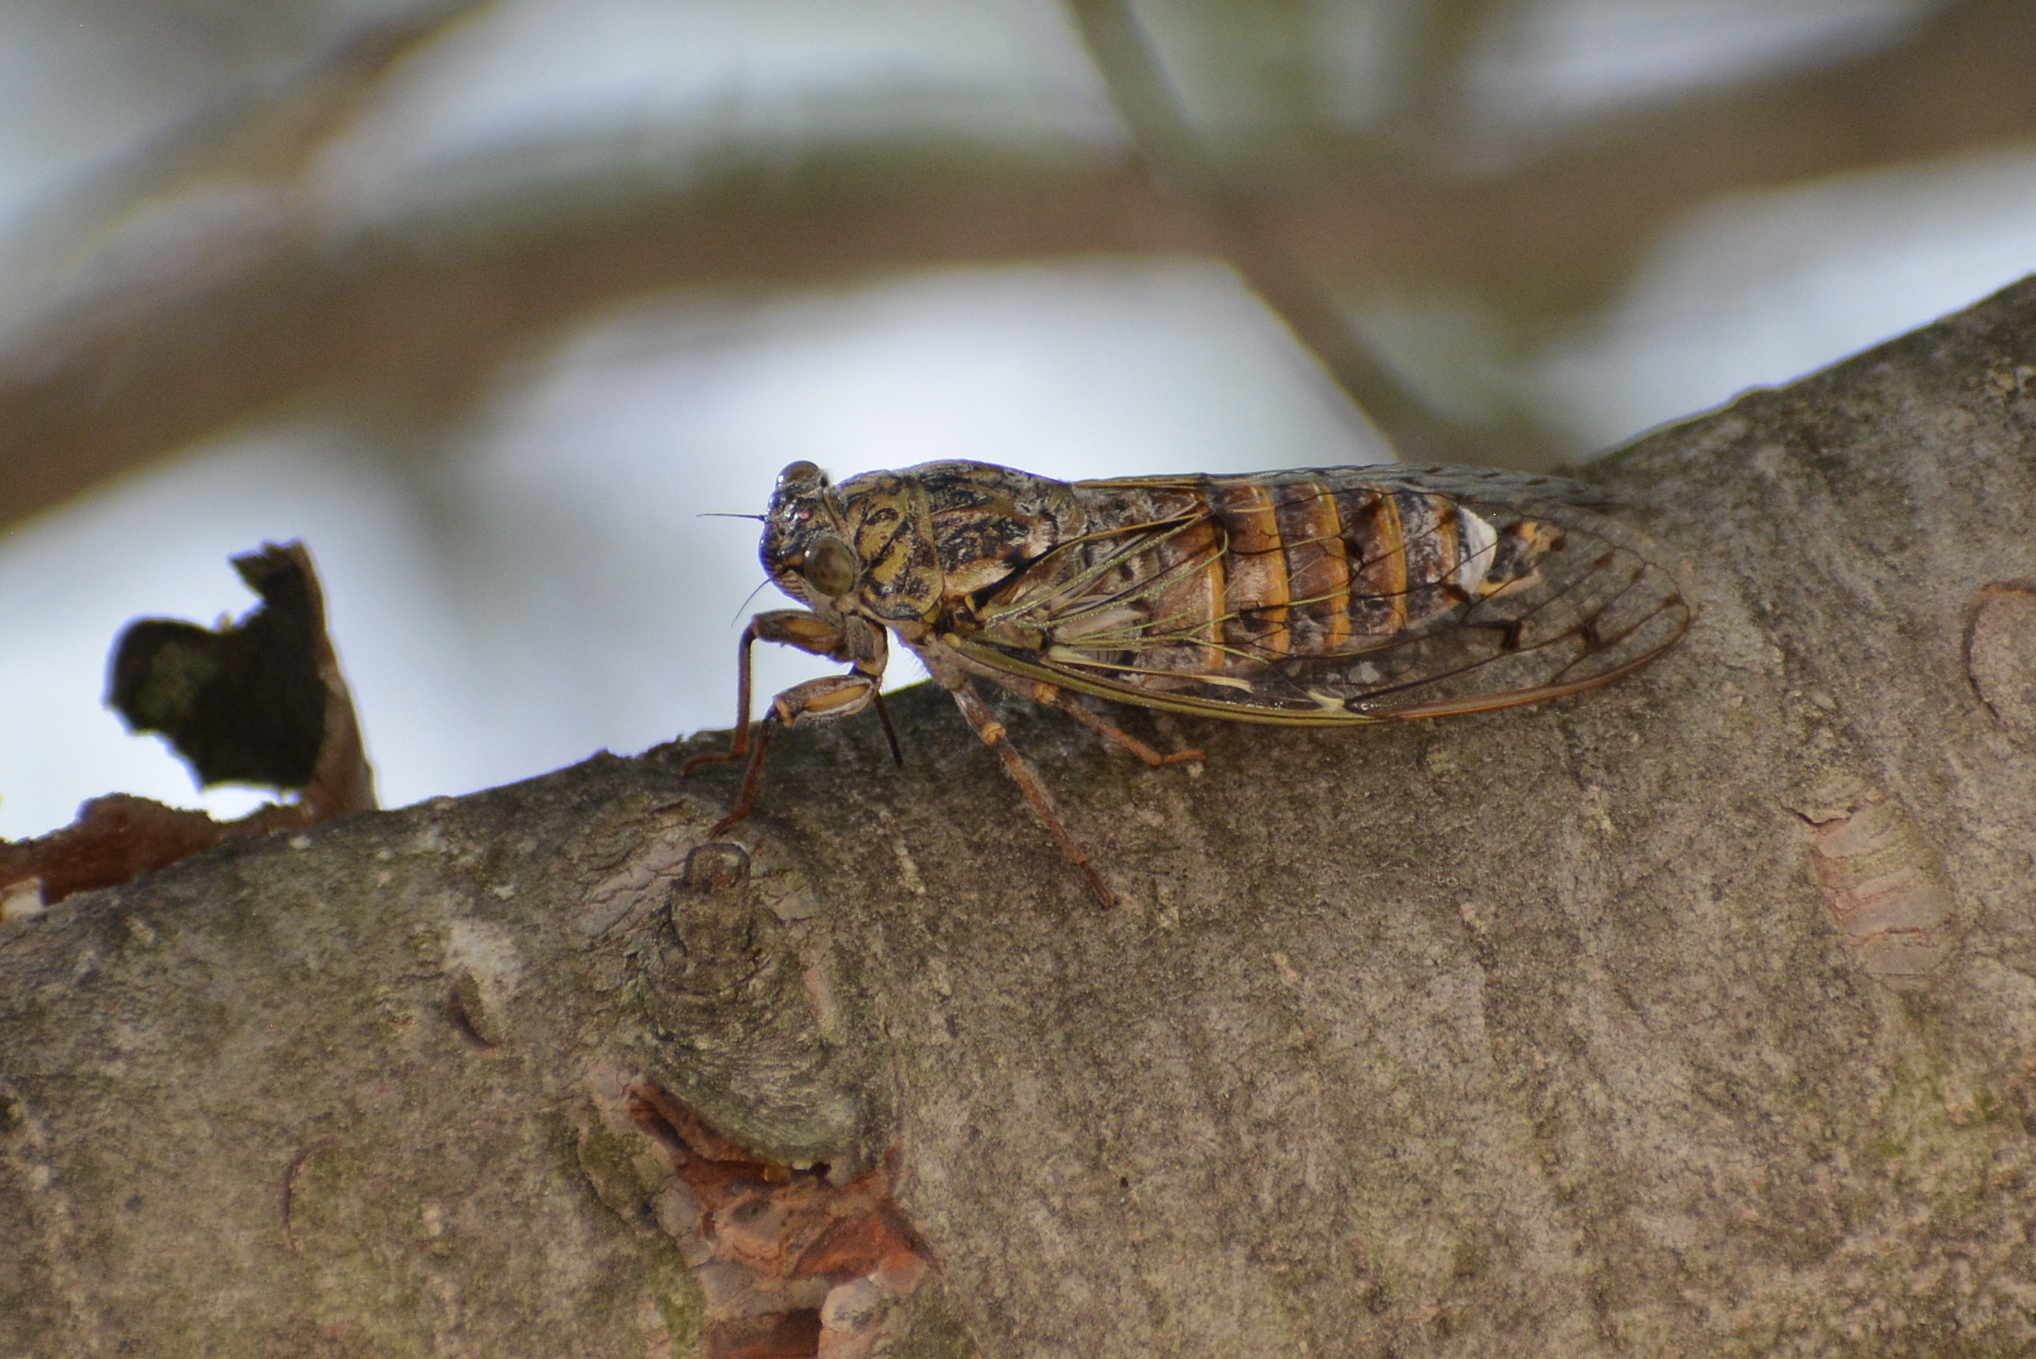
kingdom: Animalia
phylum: Arthropoda
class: Insecta
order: Hemiptera
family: Cicadidae
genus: Cicada
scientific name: Cicada orni
